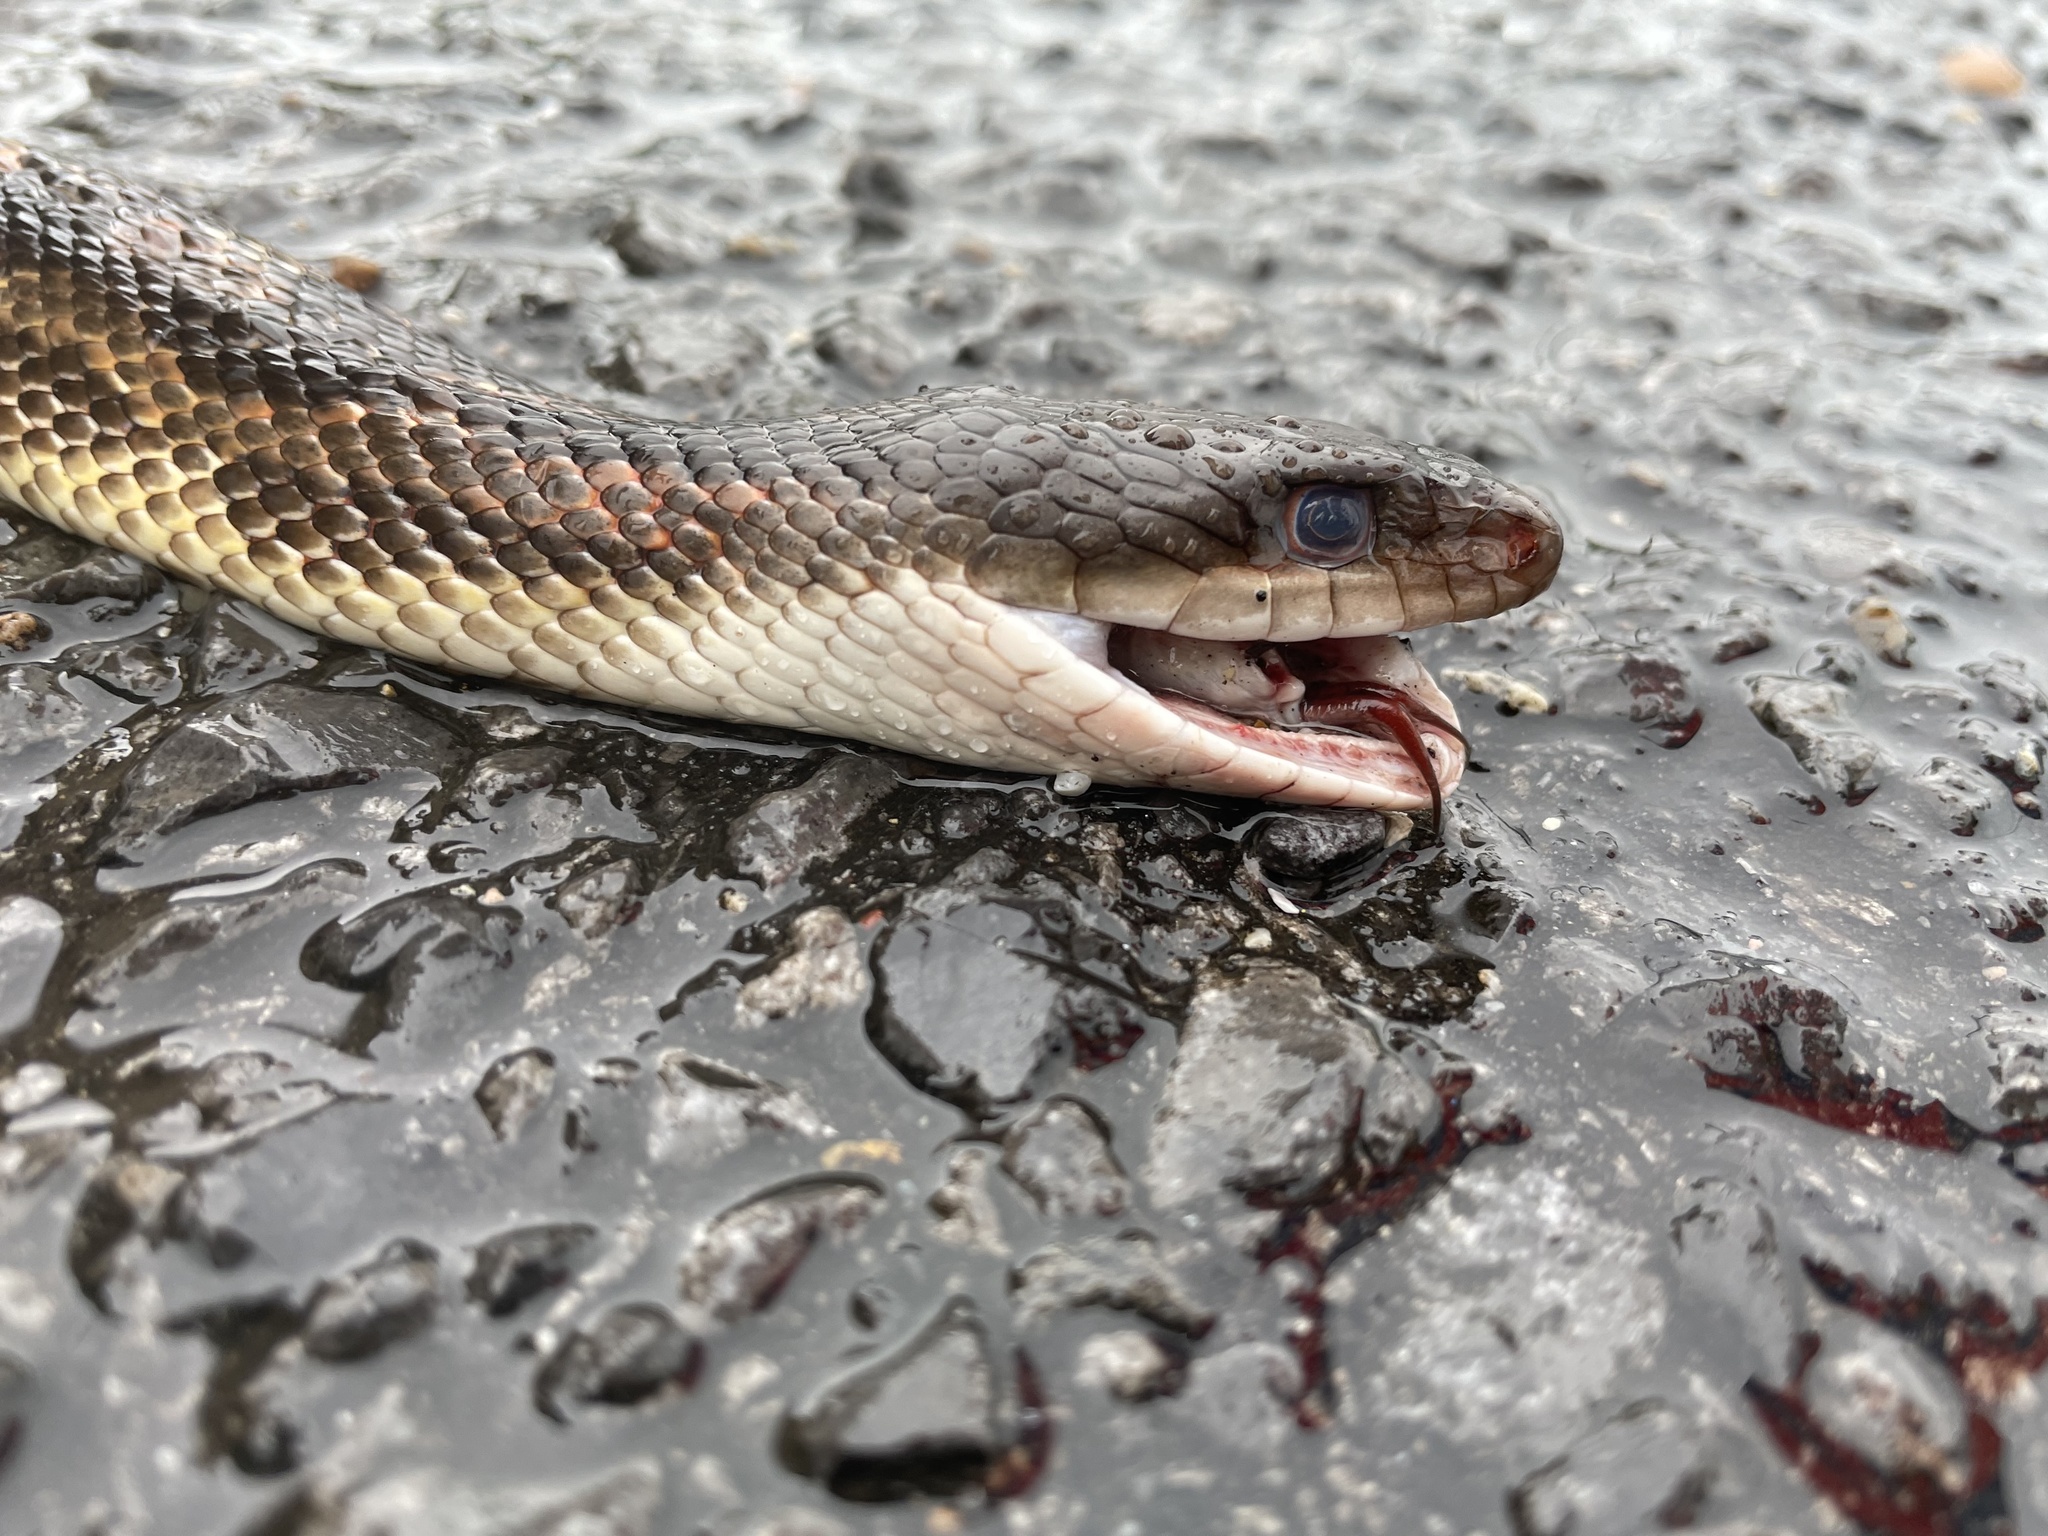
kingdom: Animalia
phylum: Chordata
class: Squamata
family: Colubridae
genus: Pantherophis
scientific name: Pantherophis obsoletus
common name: Black rat snake
